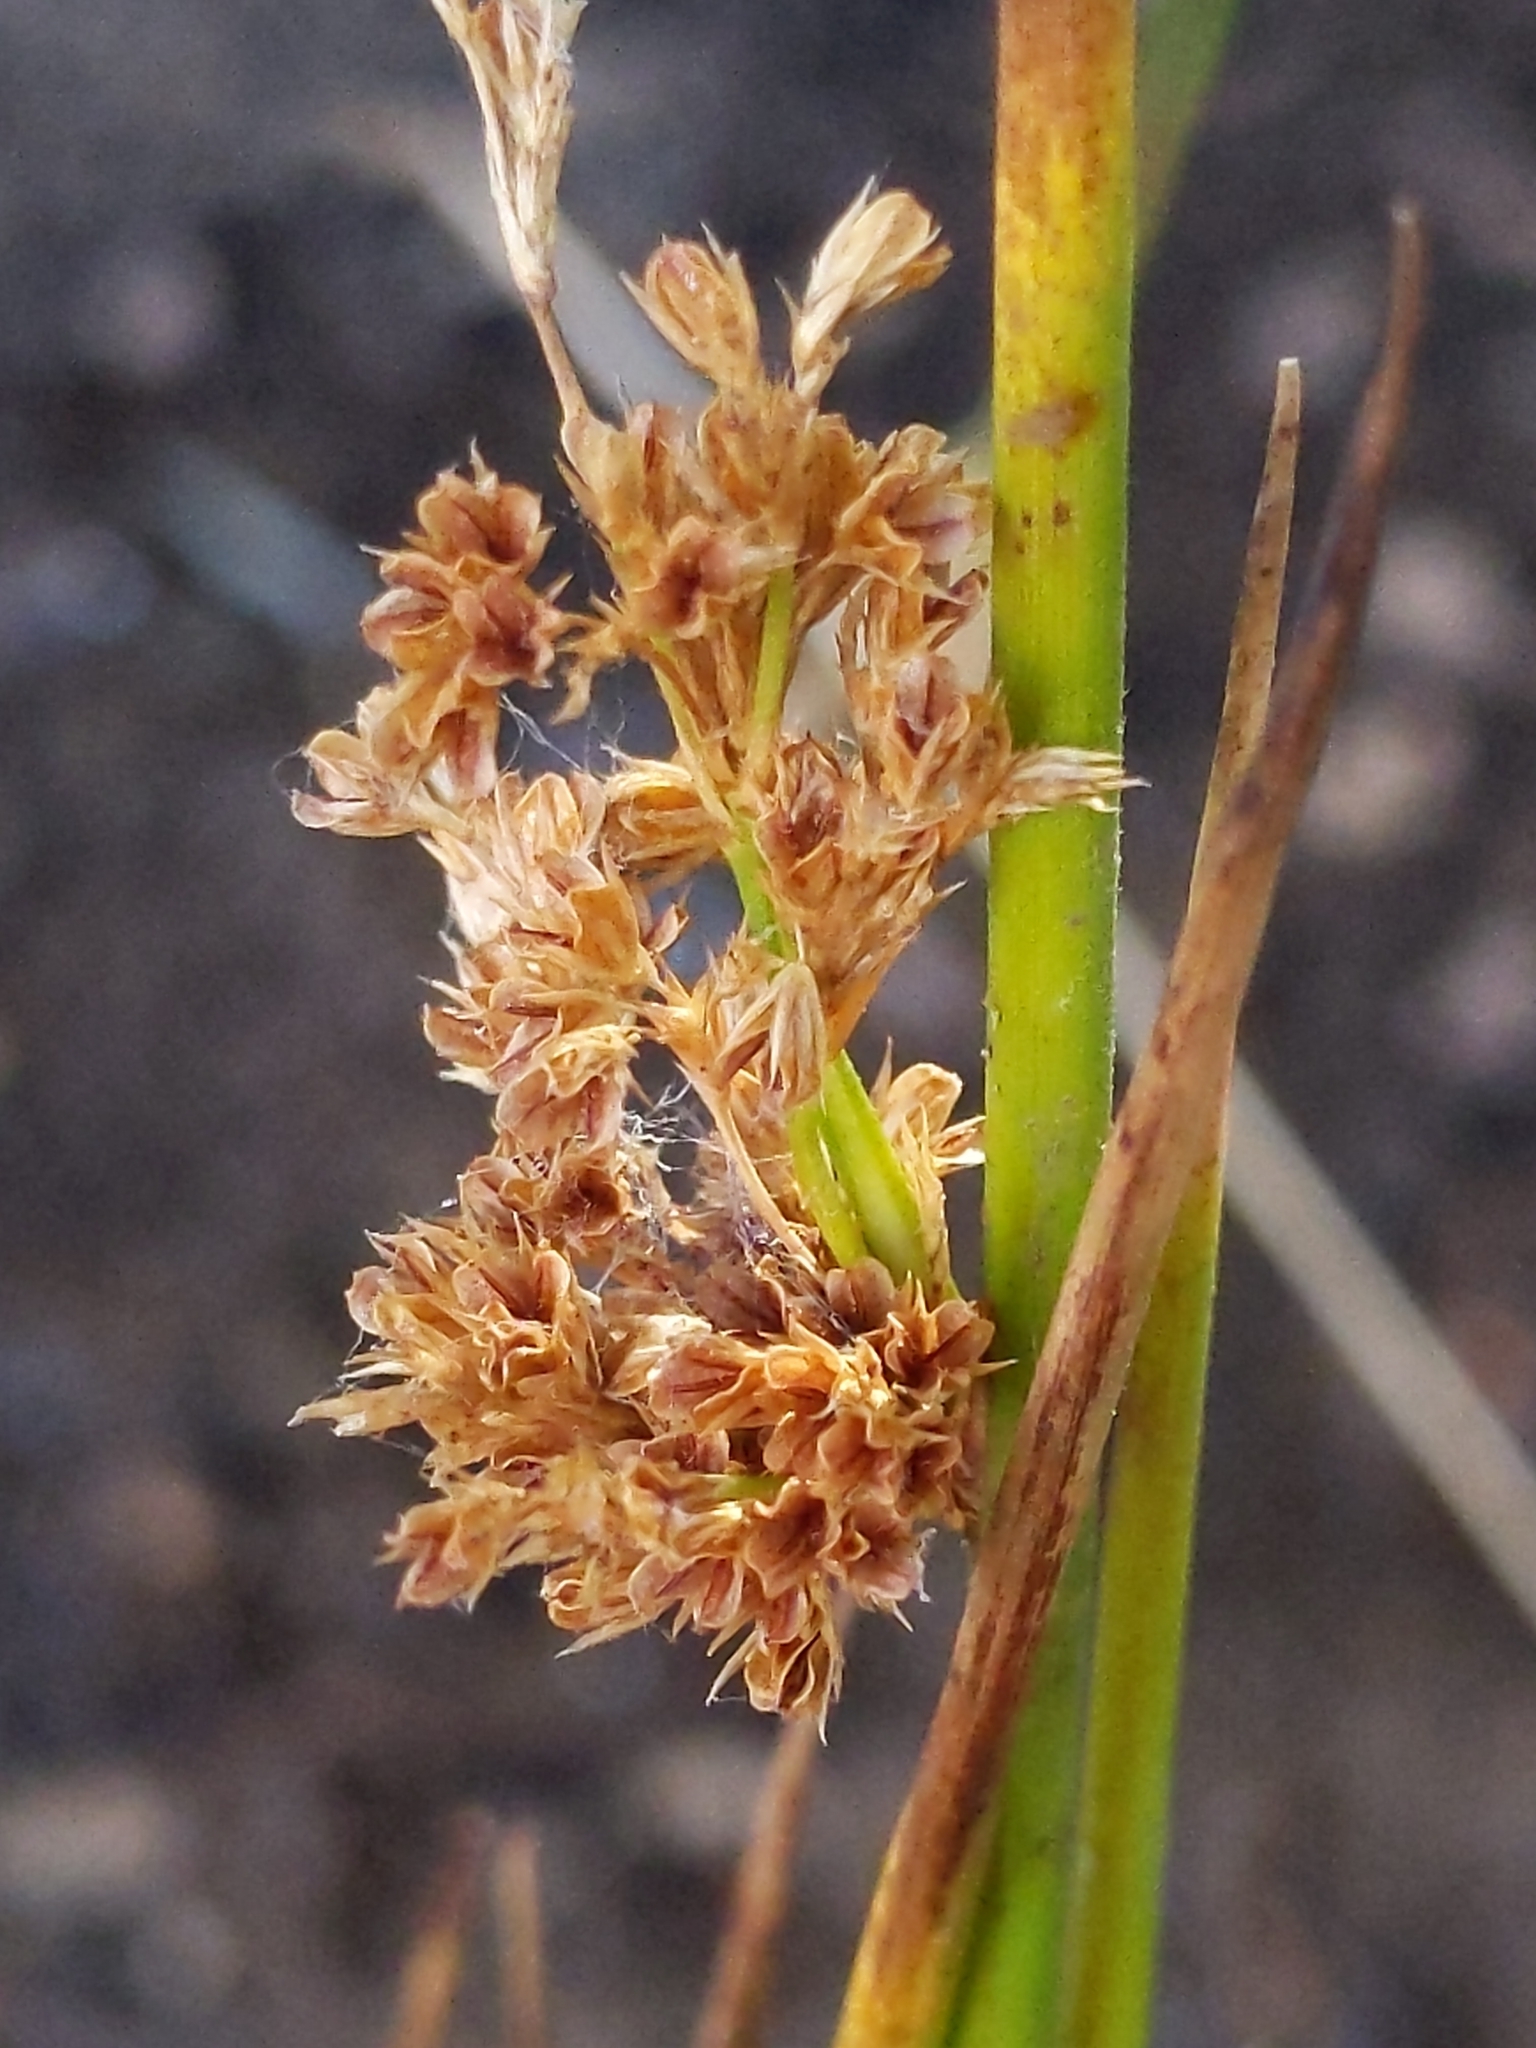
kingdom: Plantae
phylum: Tracheophyta
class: Liliopsida
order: Poales
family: Juncaceae
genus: Juncus
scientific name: Juncus effusus
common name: Soft rush
